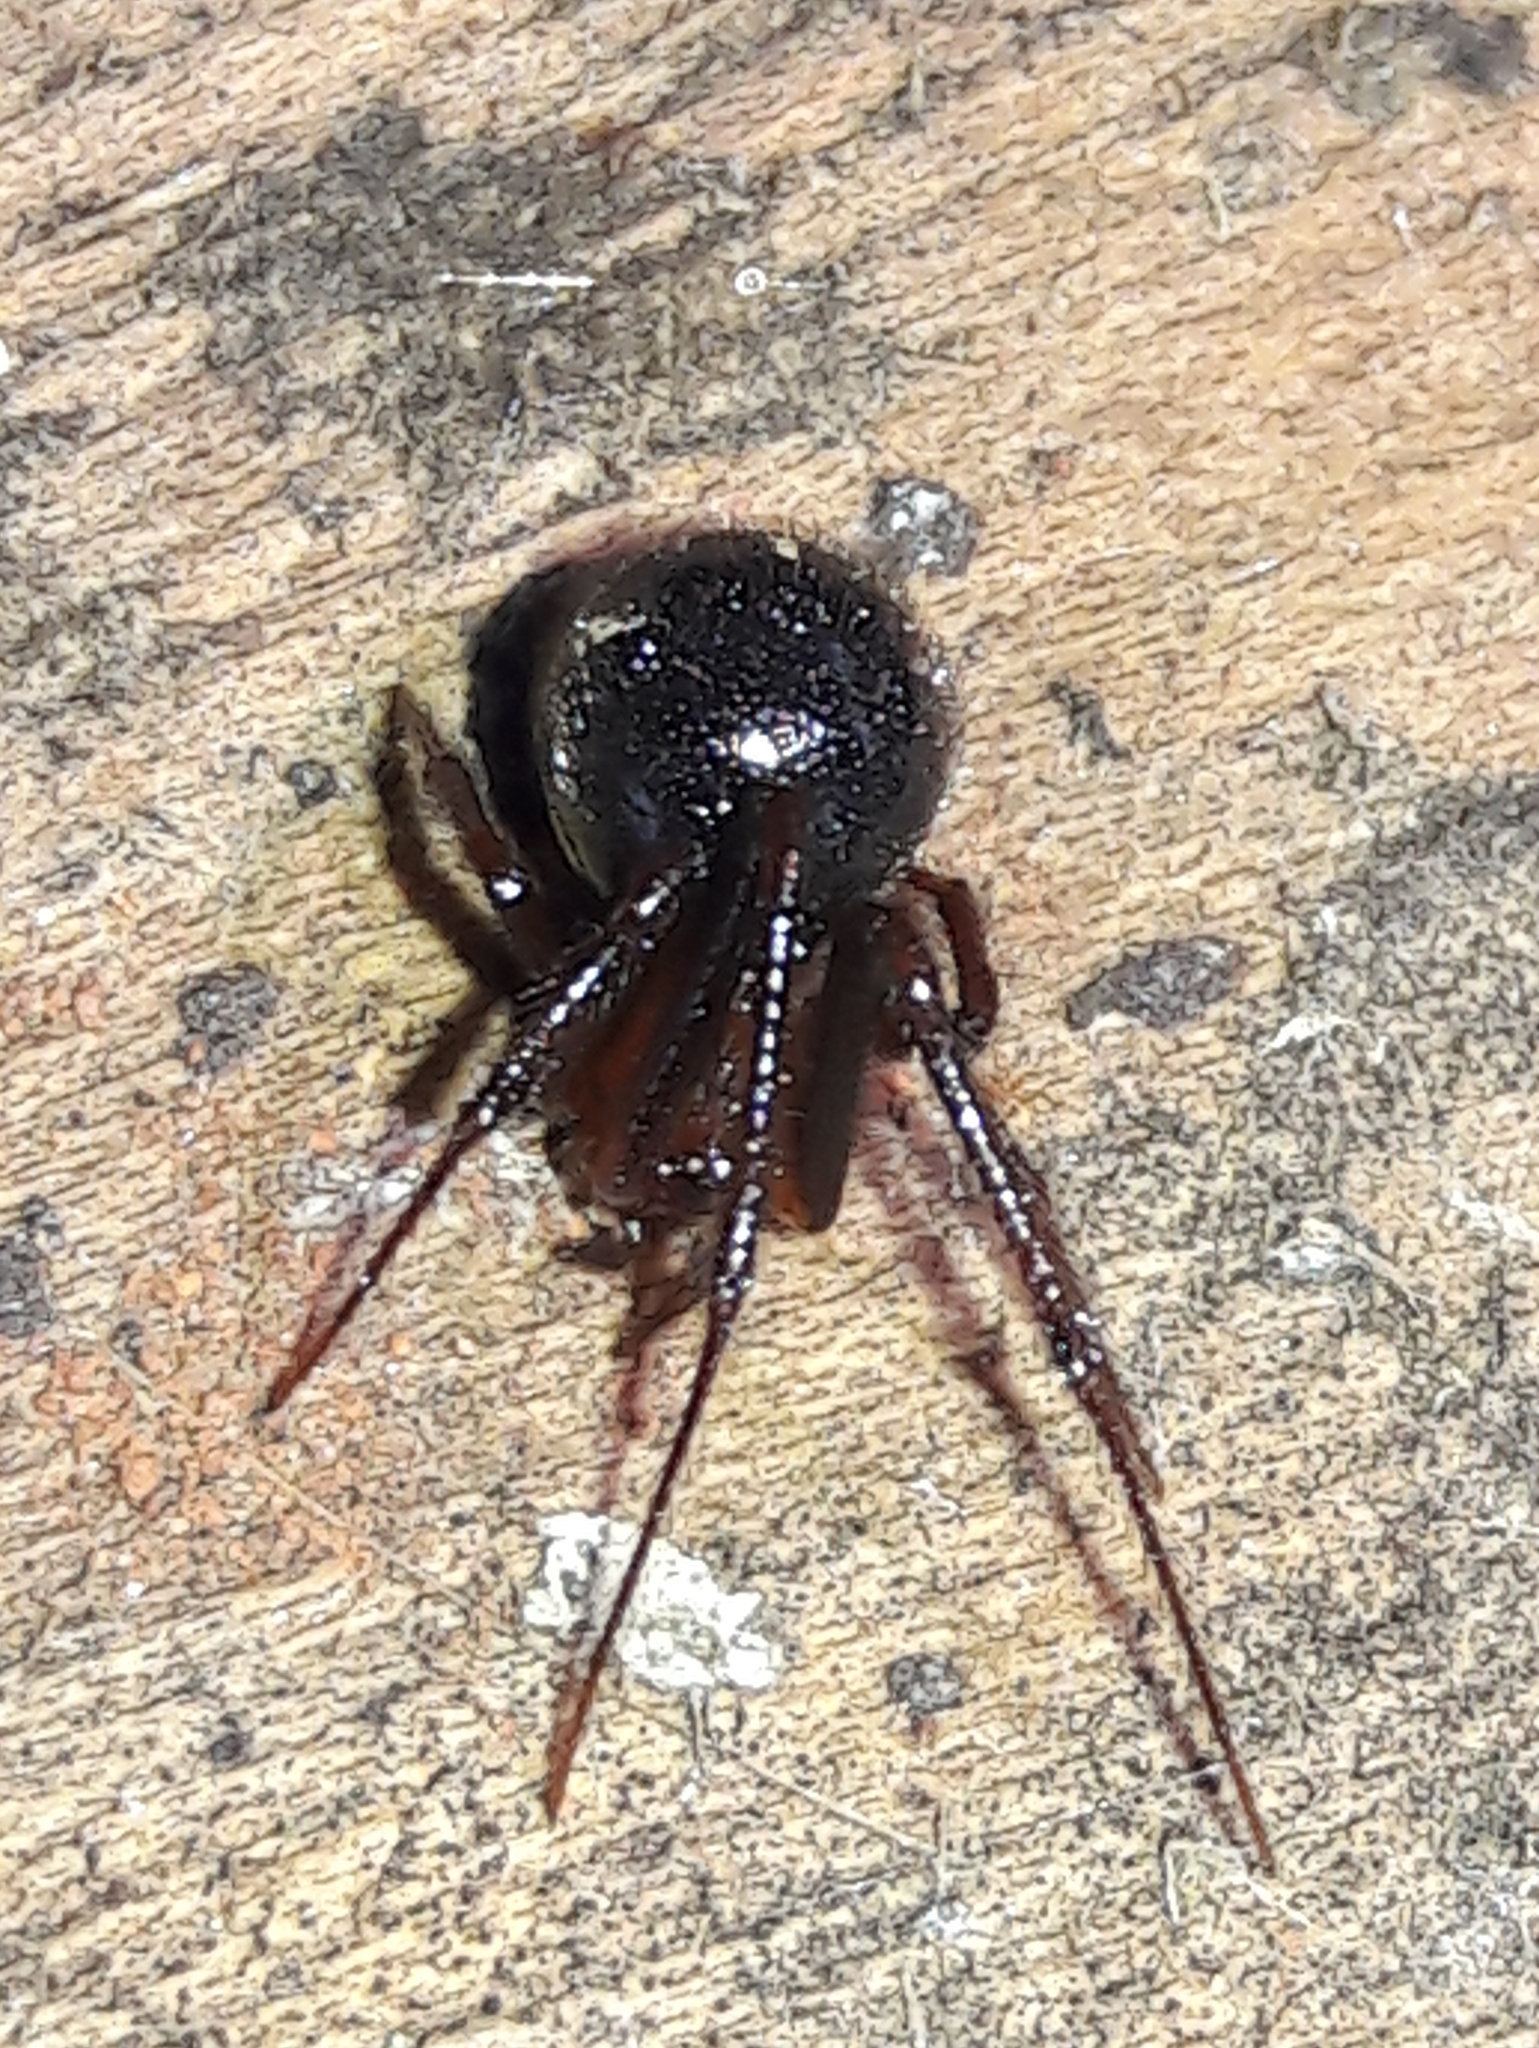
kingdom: Animalia
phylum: Arthropoda
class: Arachnida
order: Araneae
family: Theridiidae
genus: Nesticodes
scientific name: Nesticodes rufipes
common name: Cobweb spiders
